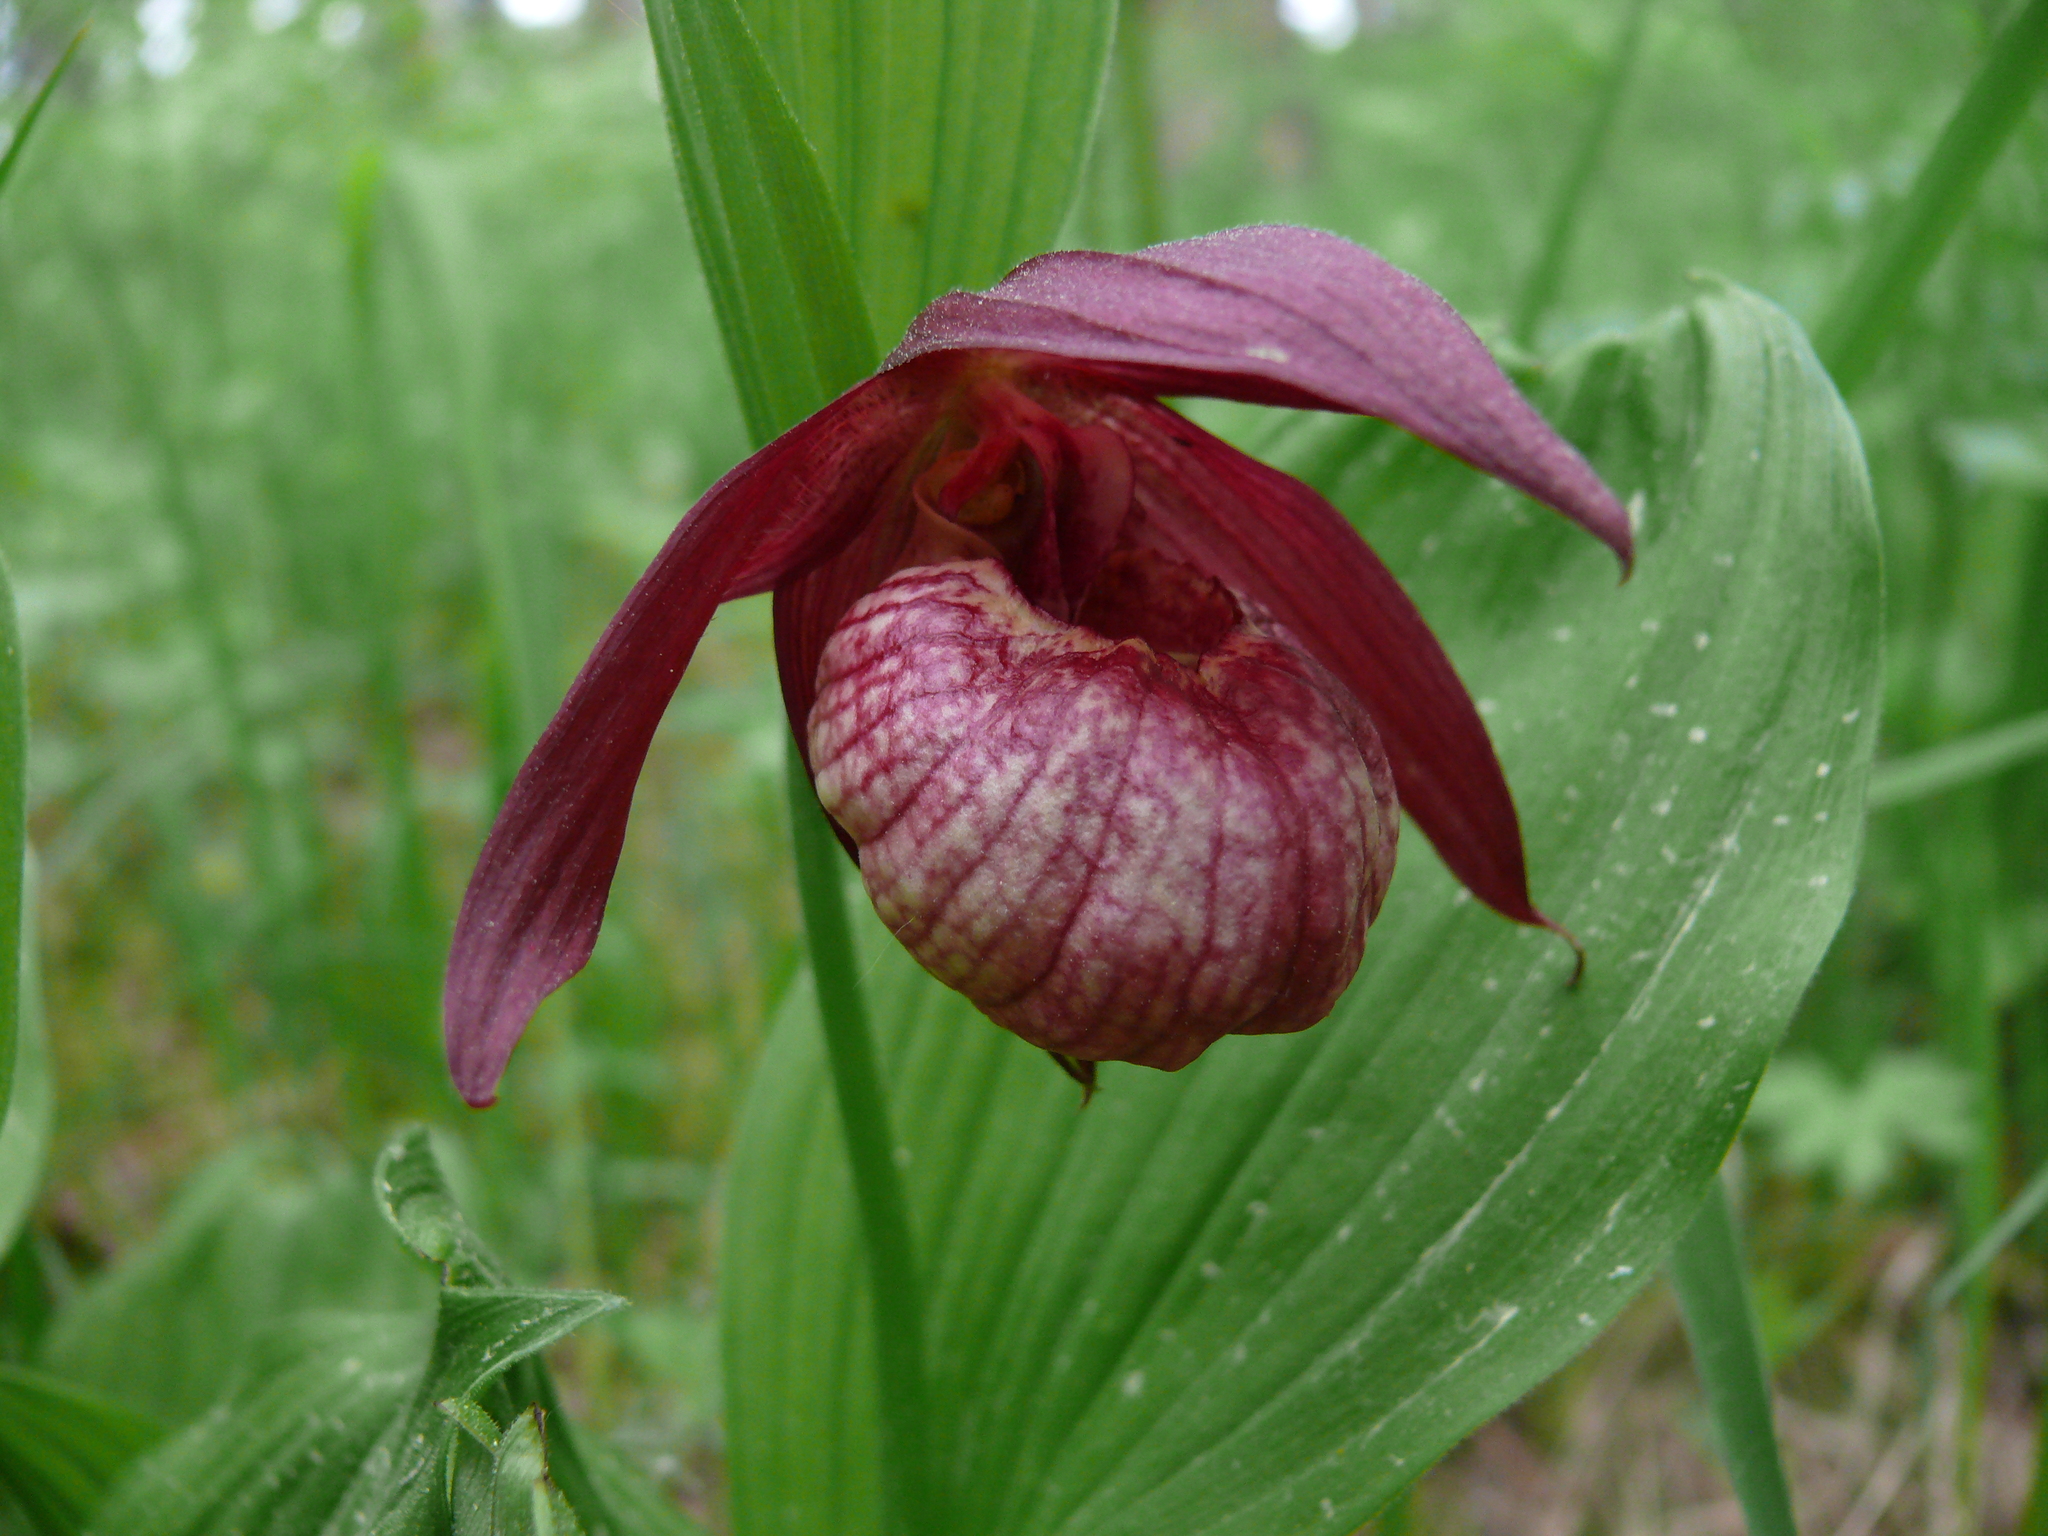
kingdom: Plantae
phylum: Tracheophyta
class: Liliopsida
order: Asparagales
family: Orchidaceae
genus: Cypripedium
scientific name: Cypripedium ventricosum
